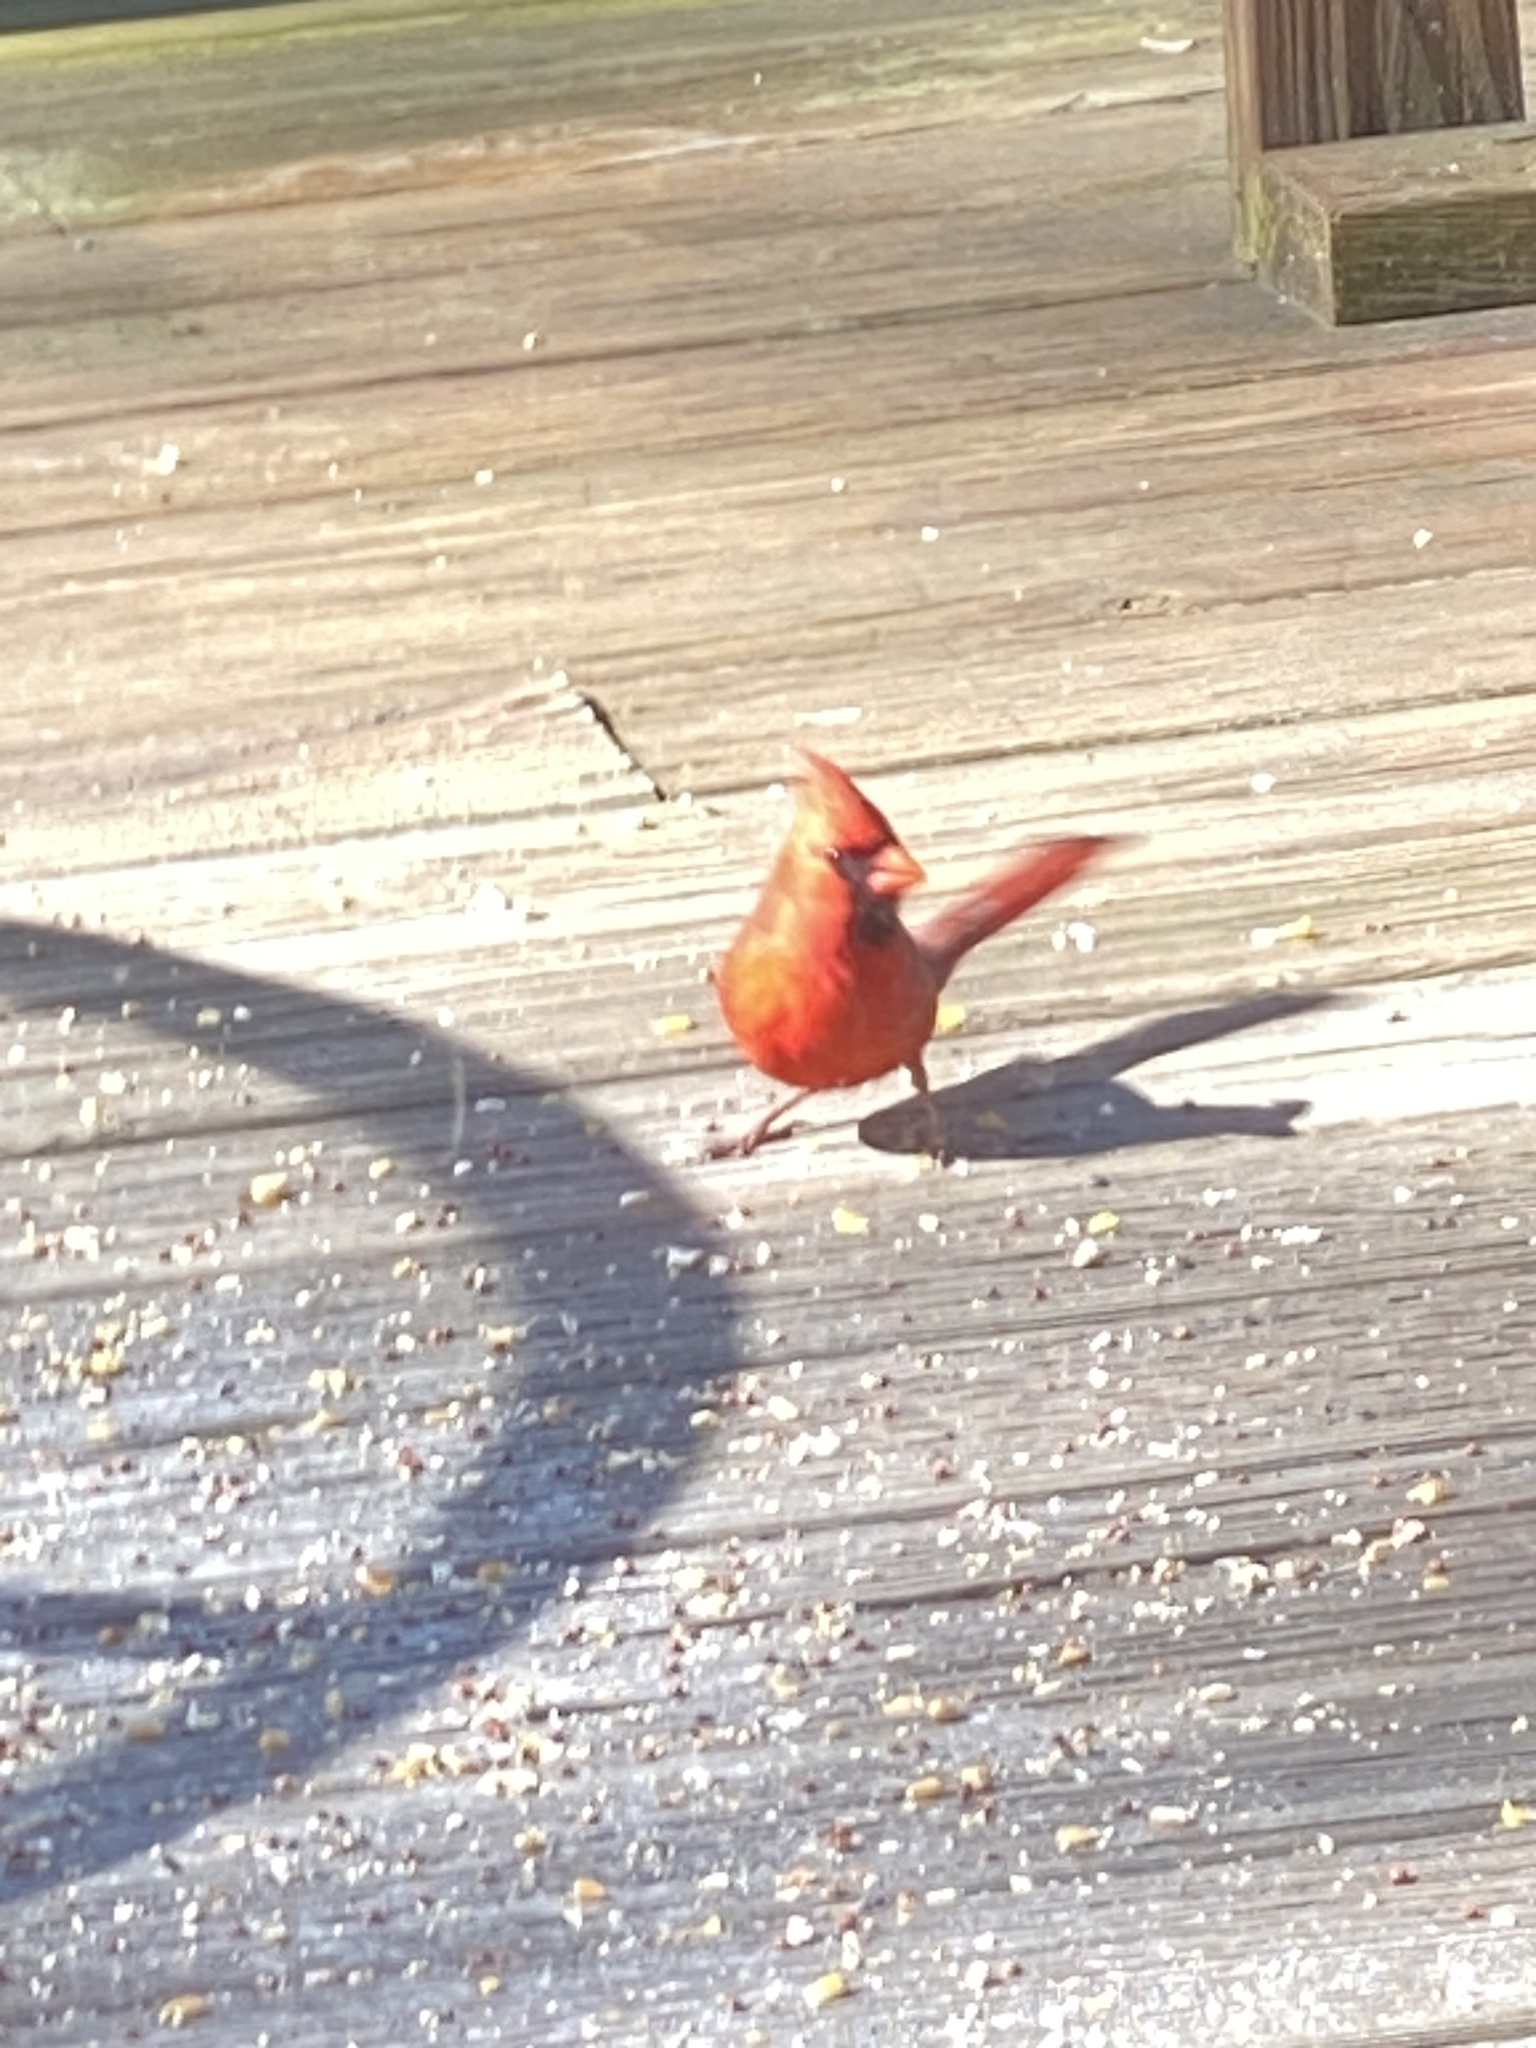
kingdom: Animalia
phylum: Chordata
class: Aves
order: Passeriformes
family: Cardinalidae
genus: Cardinalis
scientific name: Cardinalis cardinalis
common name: Northern cardinal
